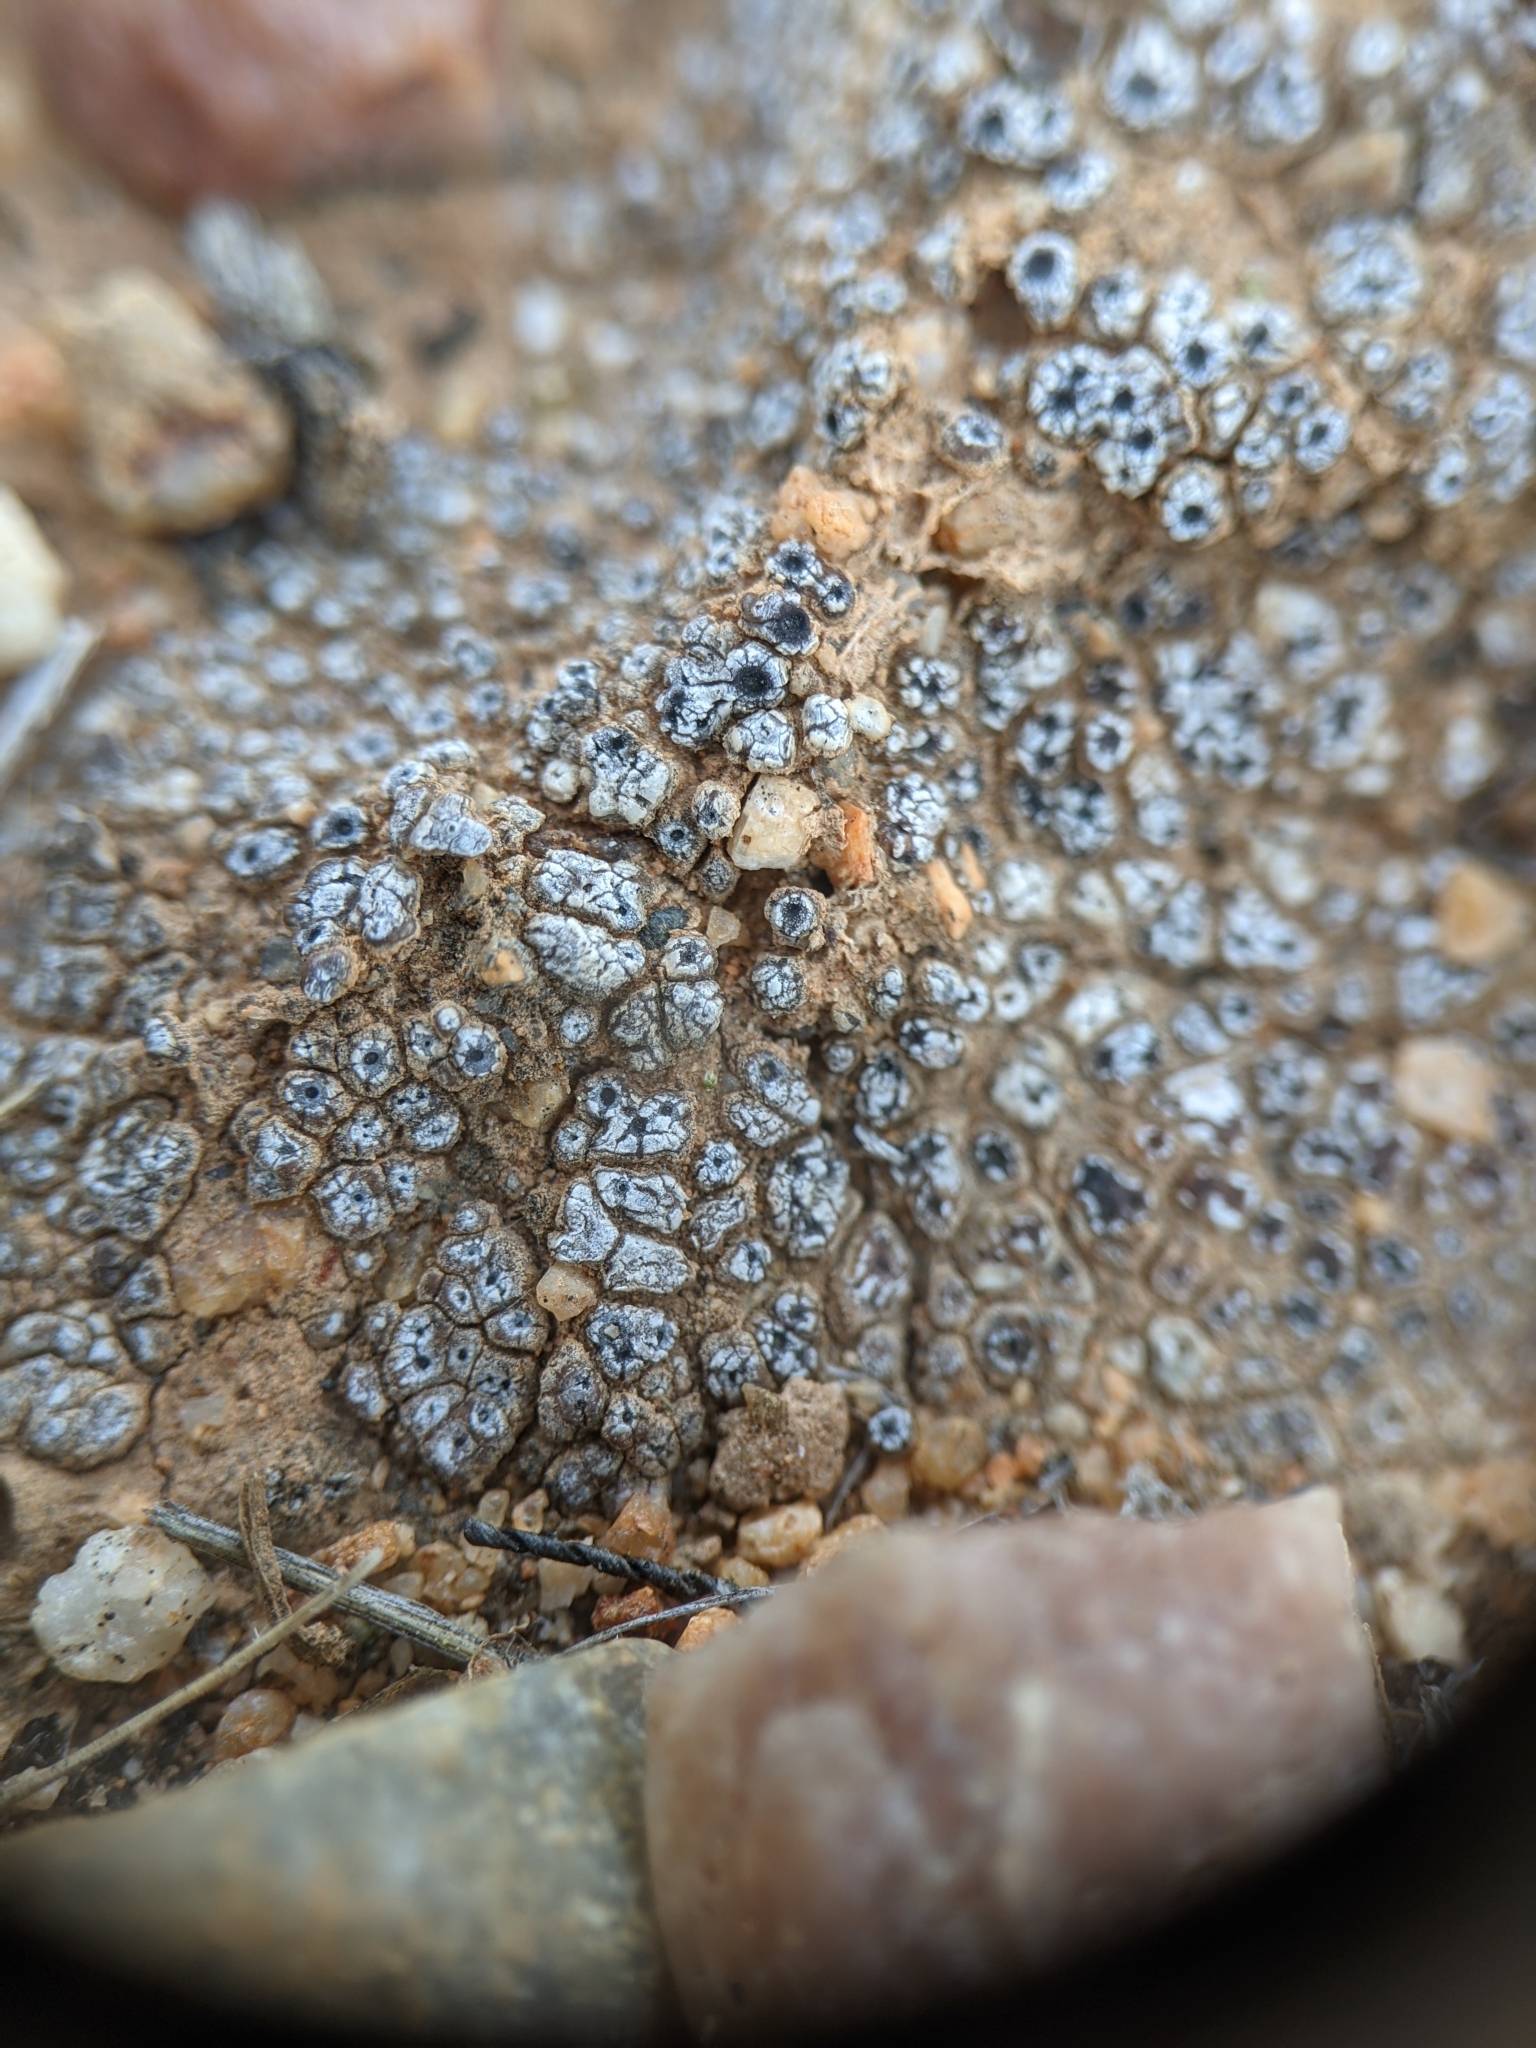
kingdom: Fungi
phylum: Ascomycota
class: Lecanoromycetes
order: Acarosporales
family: Acarosporaceae
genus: Acarospora
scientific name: Acarospora thelococcoides
